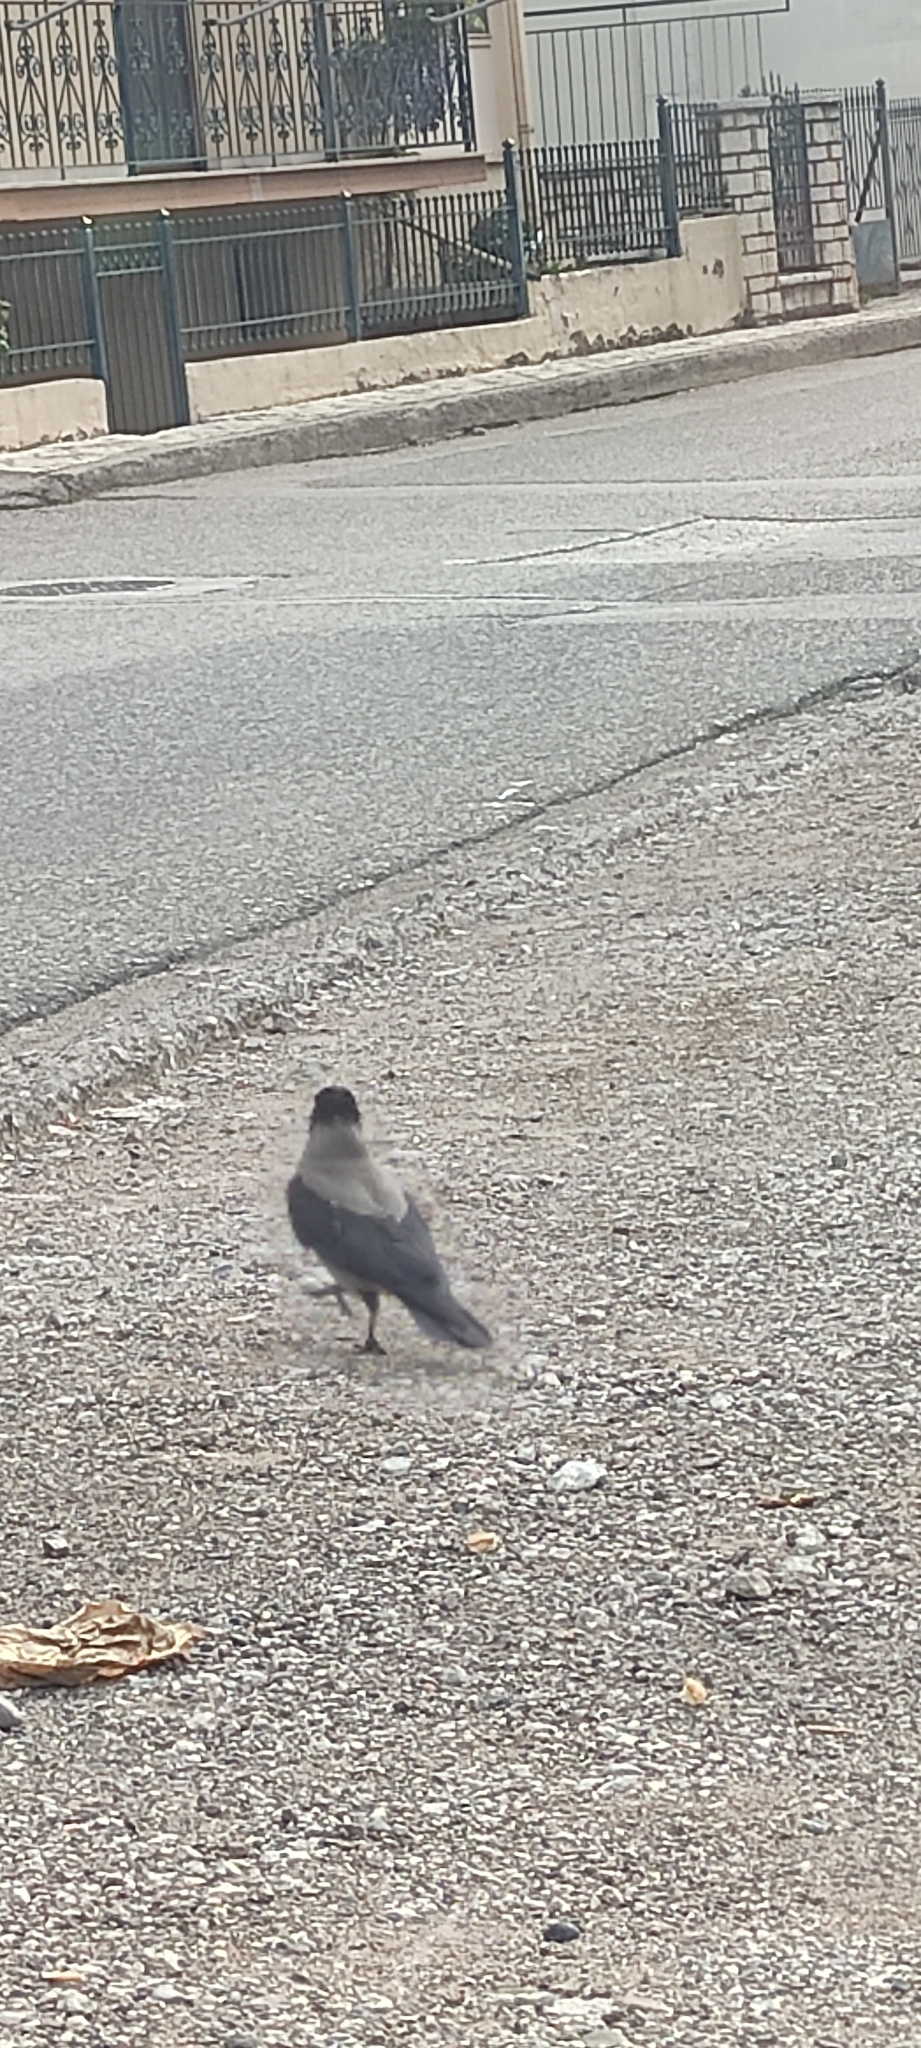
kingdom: Animalia
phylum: Chordata
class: Aves
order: Passeriformes
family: Corvidae
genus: Corvus
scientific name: Corvus cornix
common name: Hooded crow
